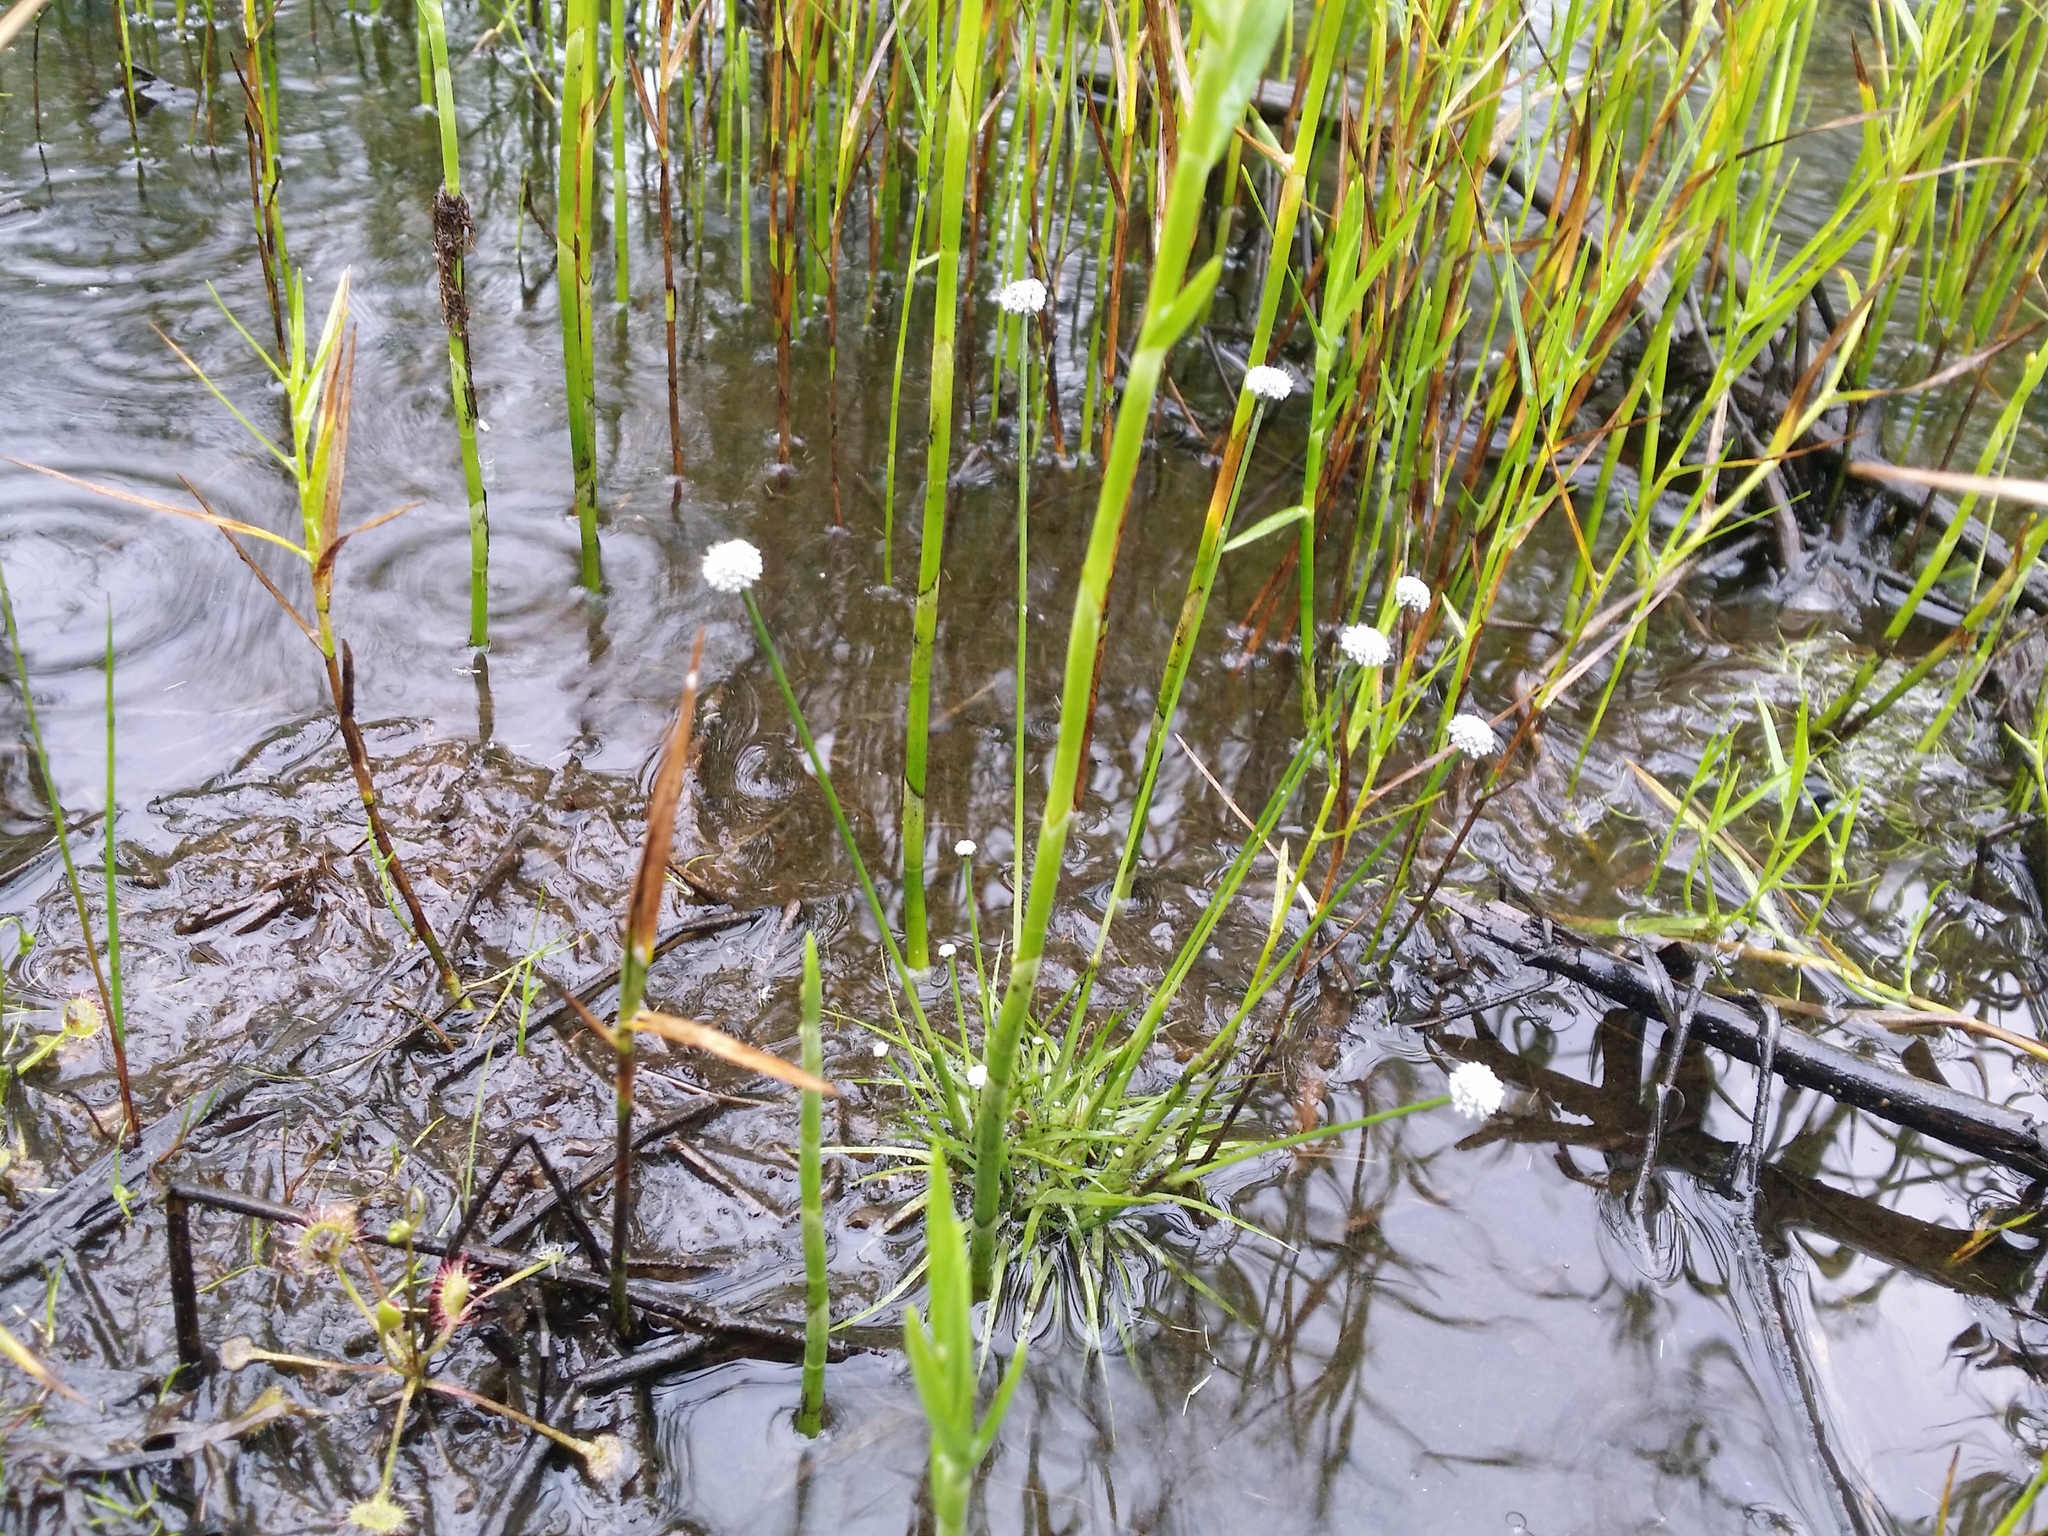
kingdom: Plantae
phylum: Tracheophyta
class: Liliopsida
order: Poales
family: Eriocaulaceae
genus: Eriocaulon
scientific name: Eriocaulon aquaticum
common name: Pipewort
